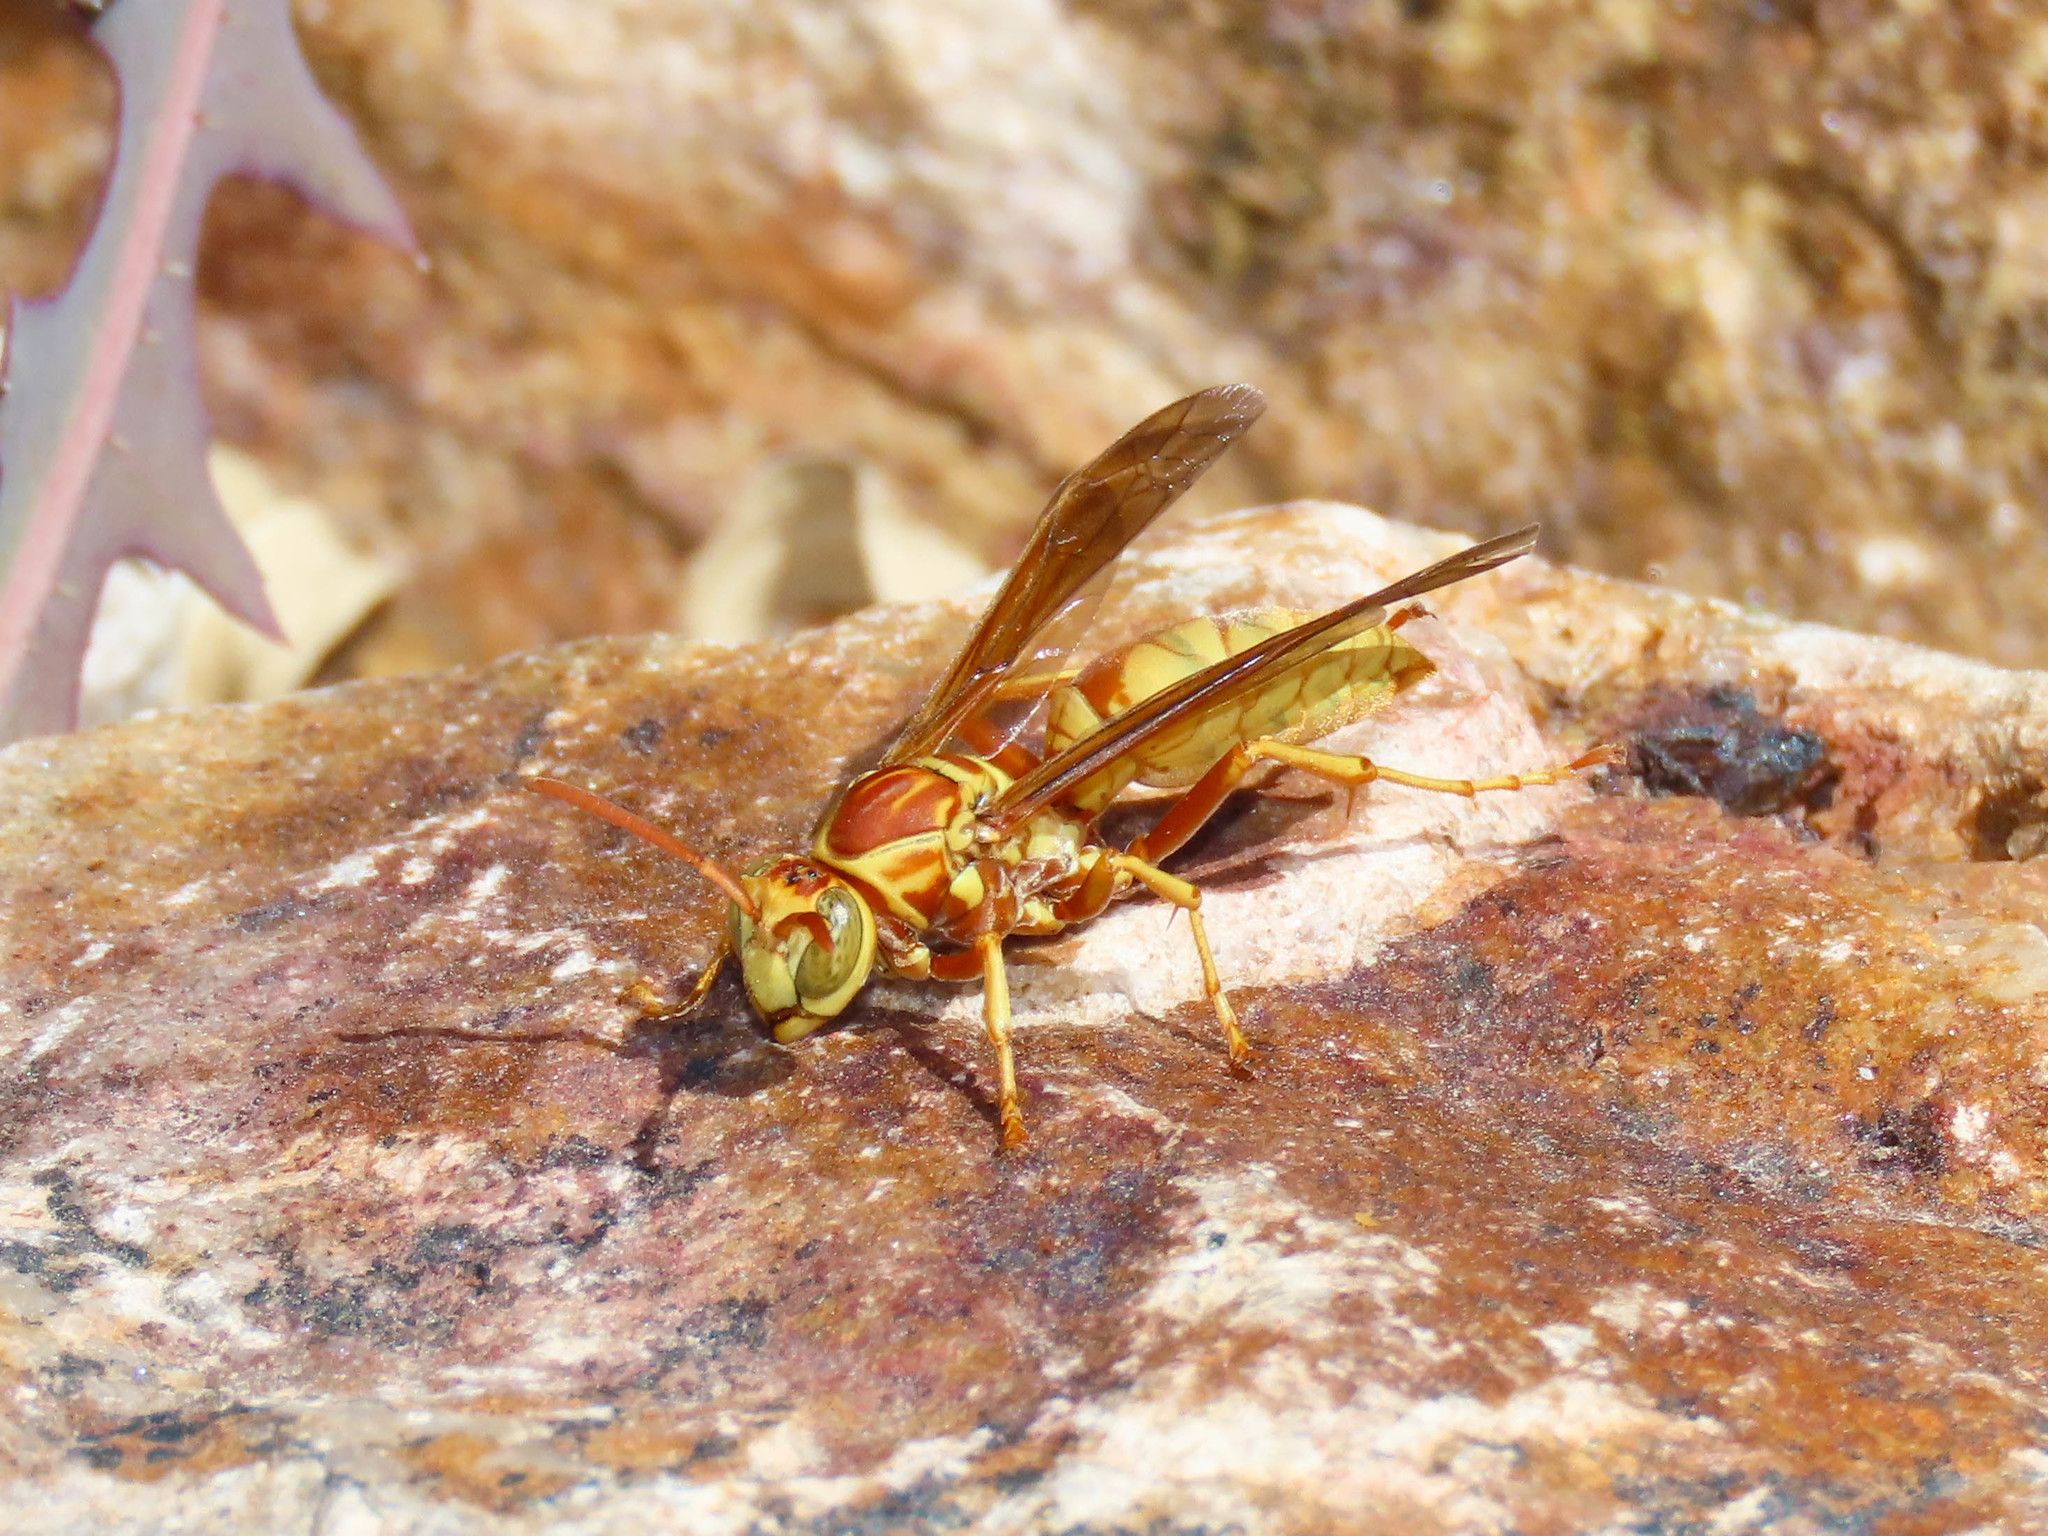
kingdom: Animalia
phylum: Arthropoda
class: Insecta
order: Hymenoptera
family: Eumenidae
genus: Polistes
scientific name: Polistes aurifer
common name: Paper wasp
